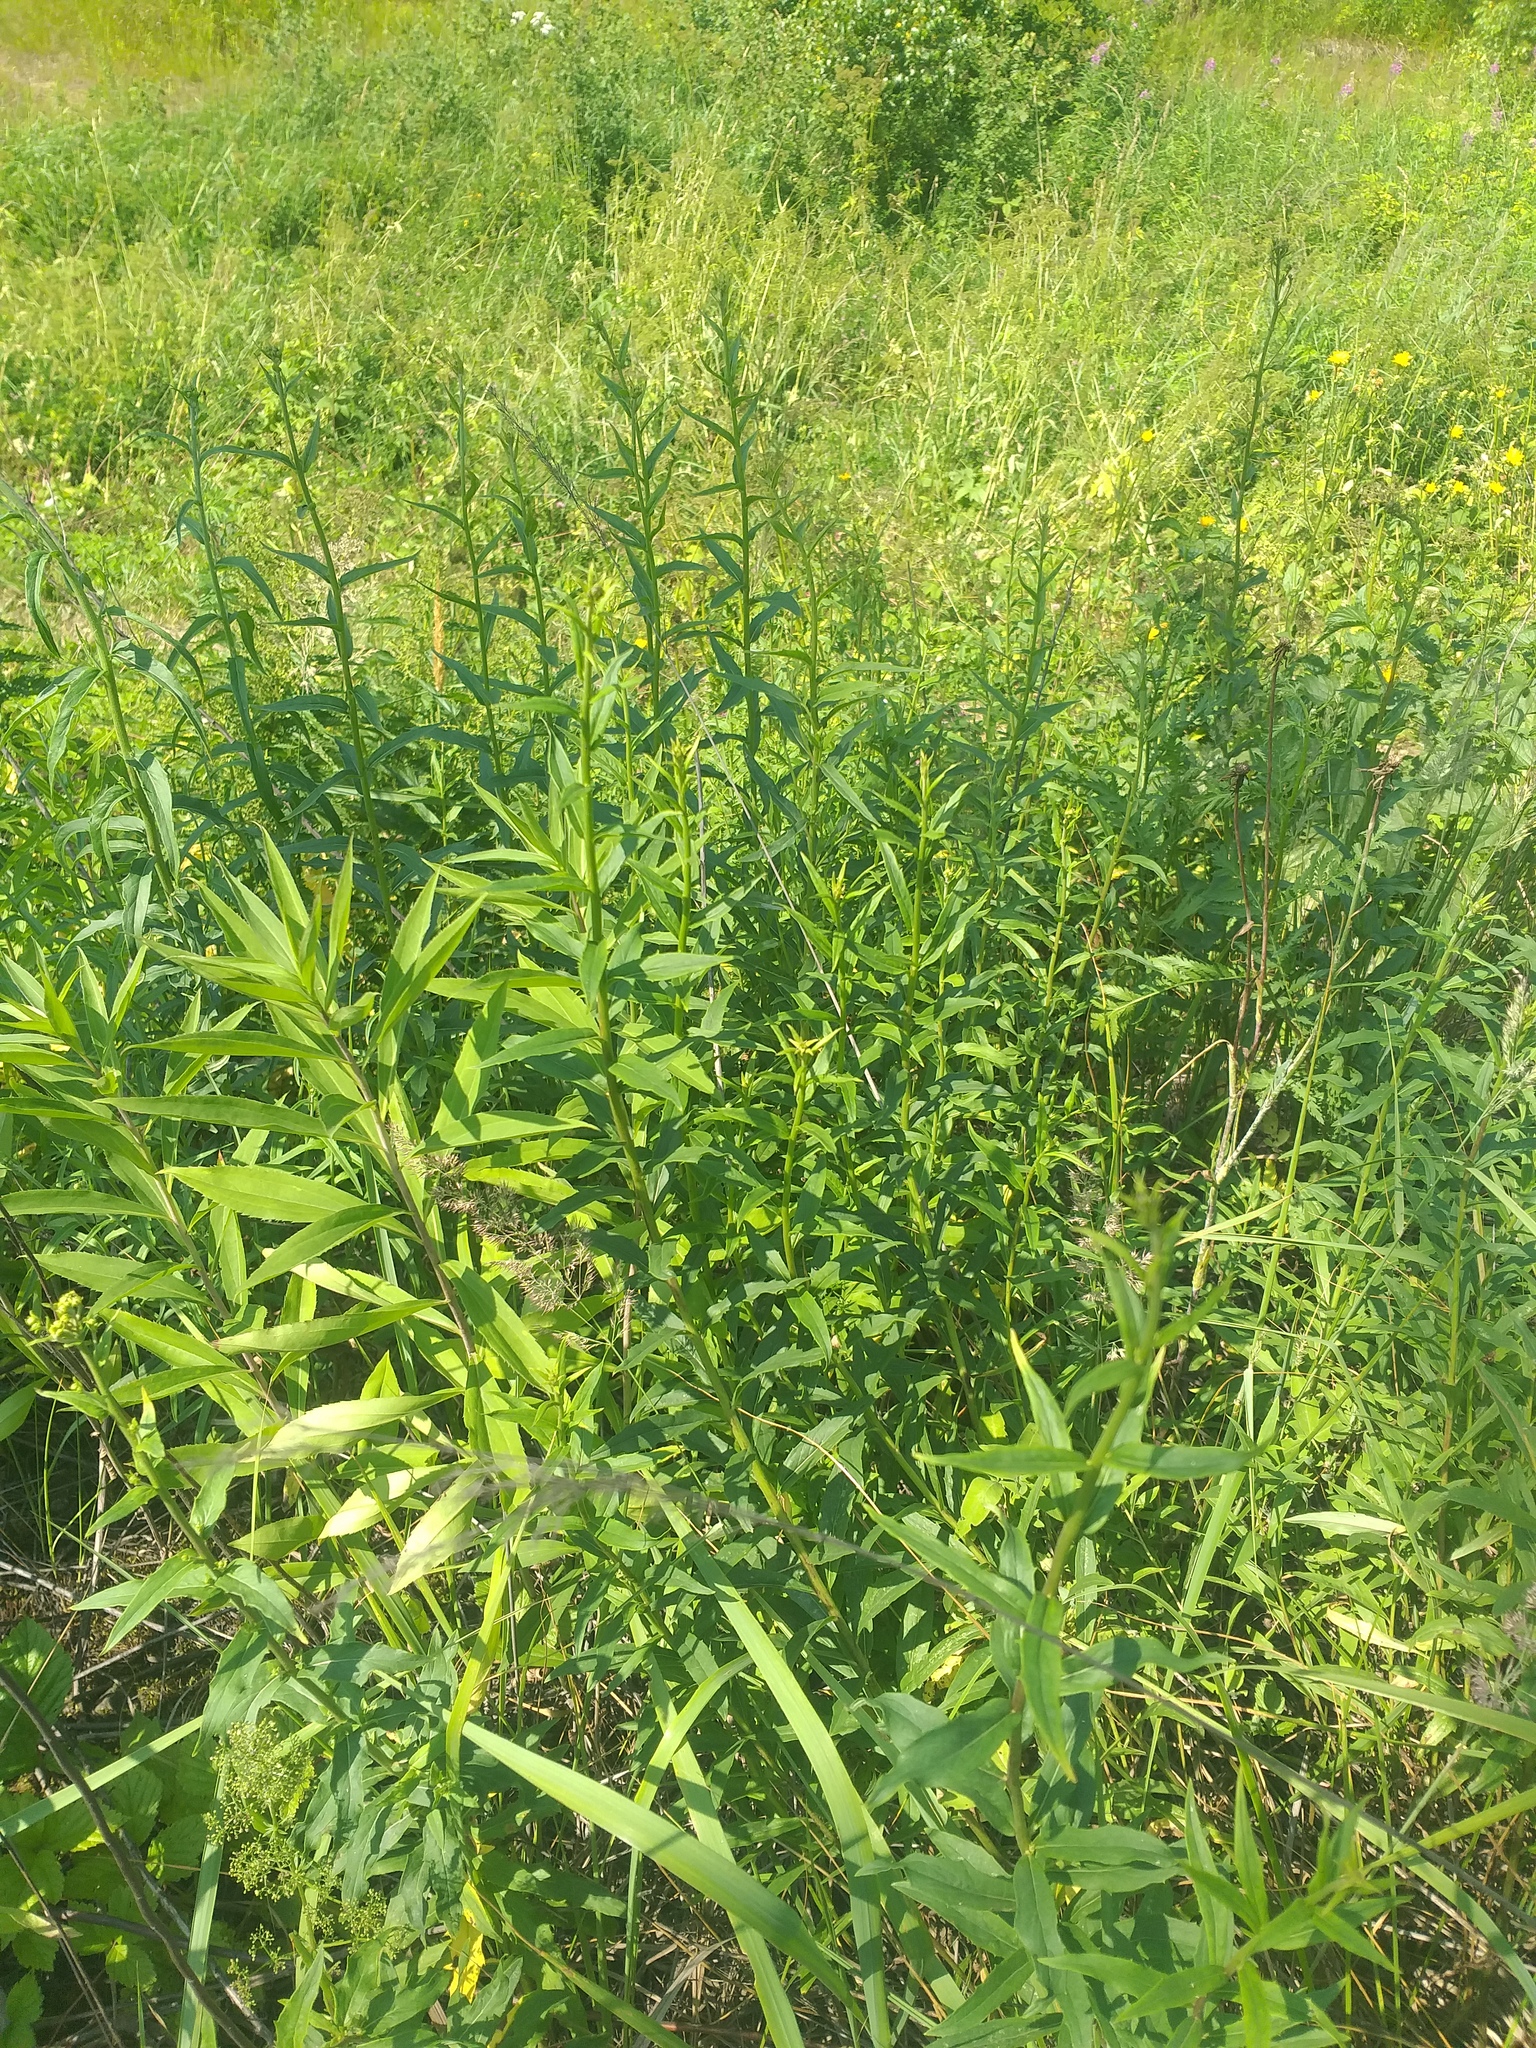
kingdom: Plantae
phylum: Tracheophyta
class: Magnoliopsida
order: Asterales
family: Asteraceae
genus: Hieracium
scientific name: Hieracium umbellatum
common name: Northern hawkweed
